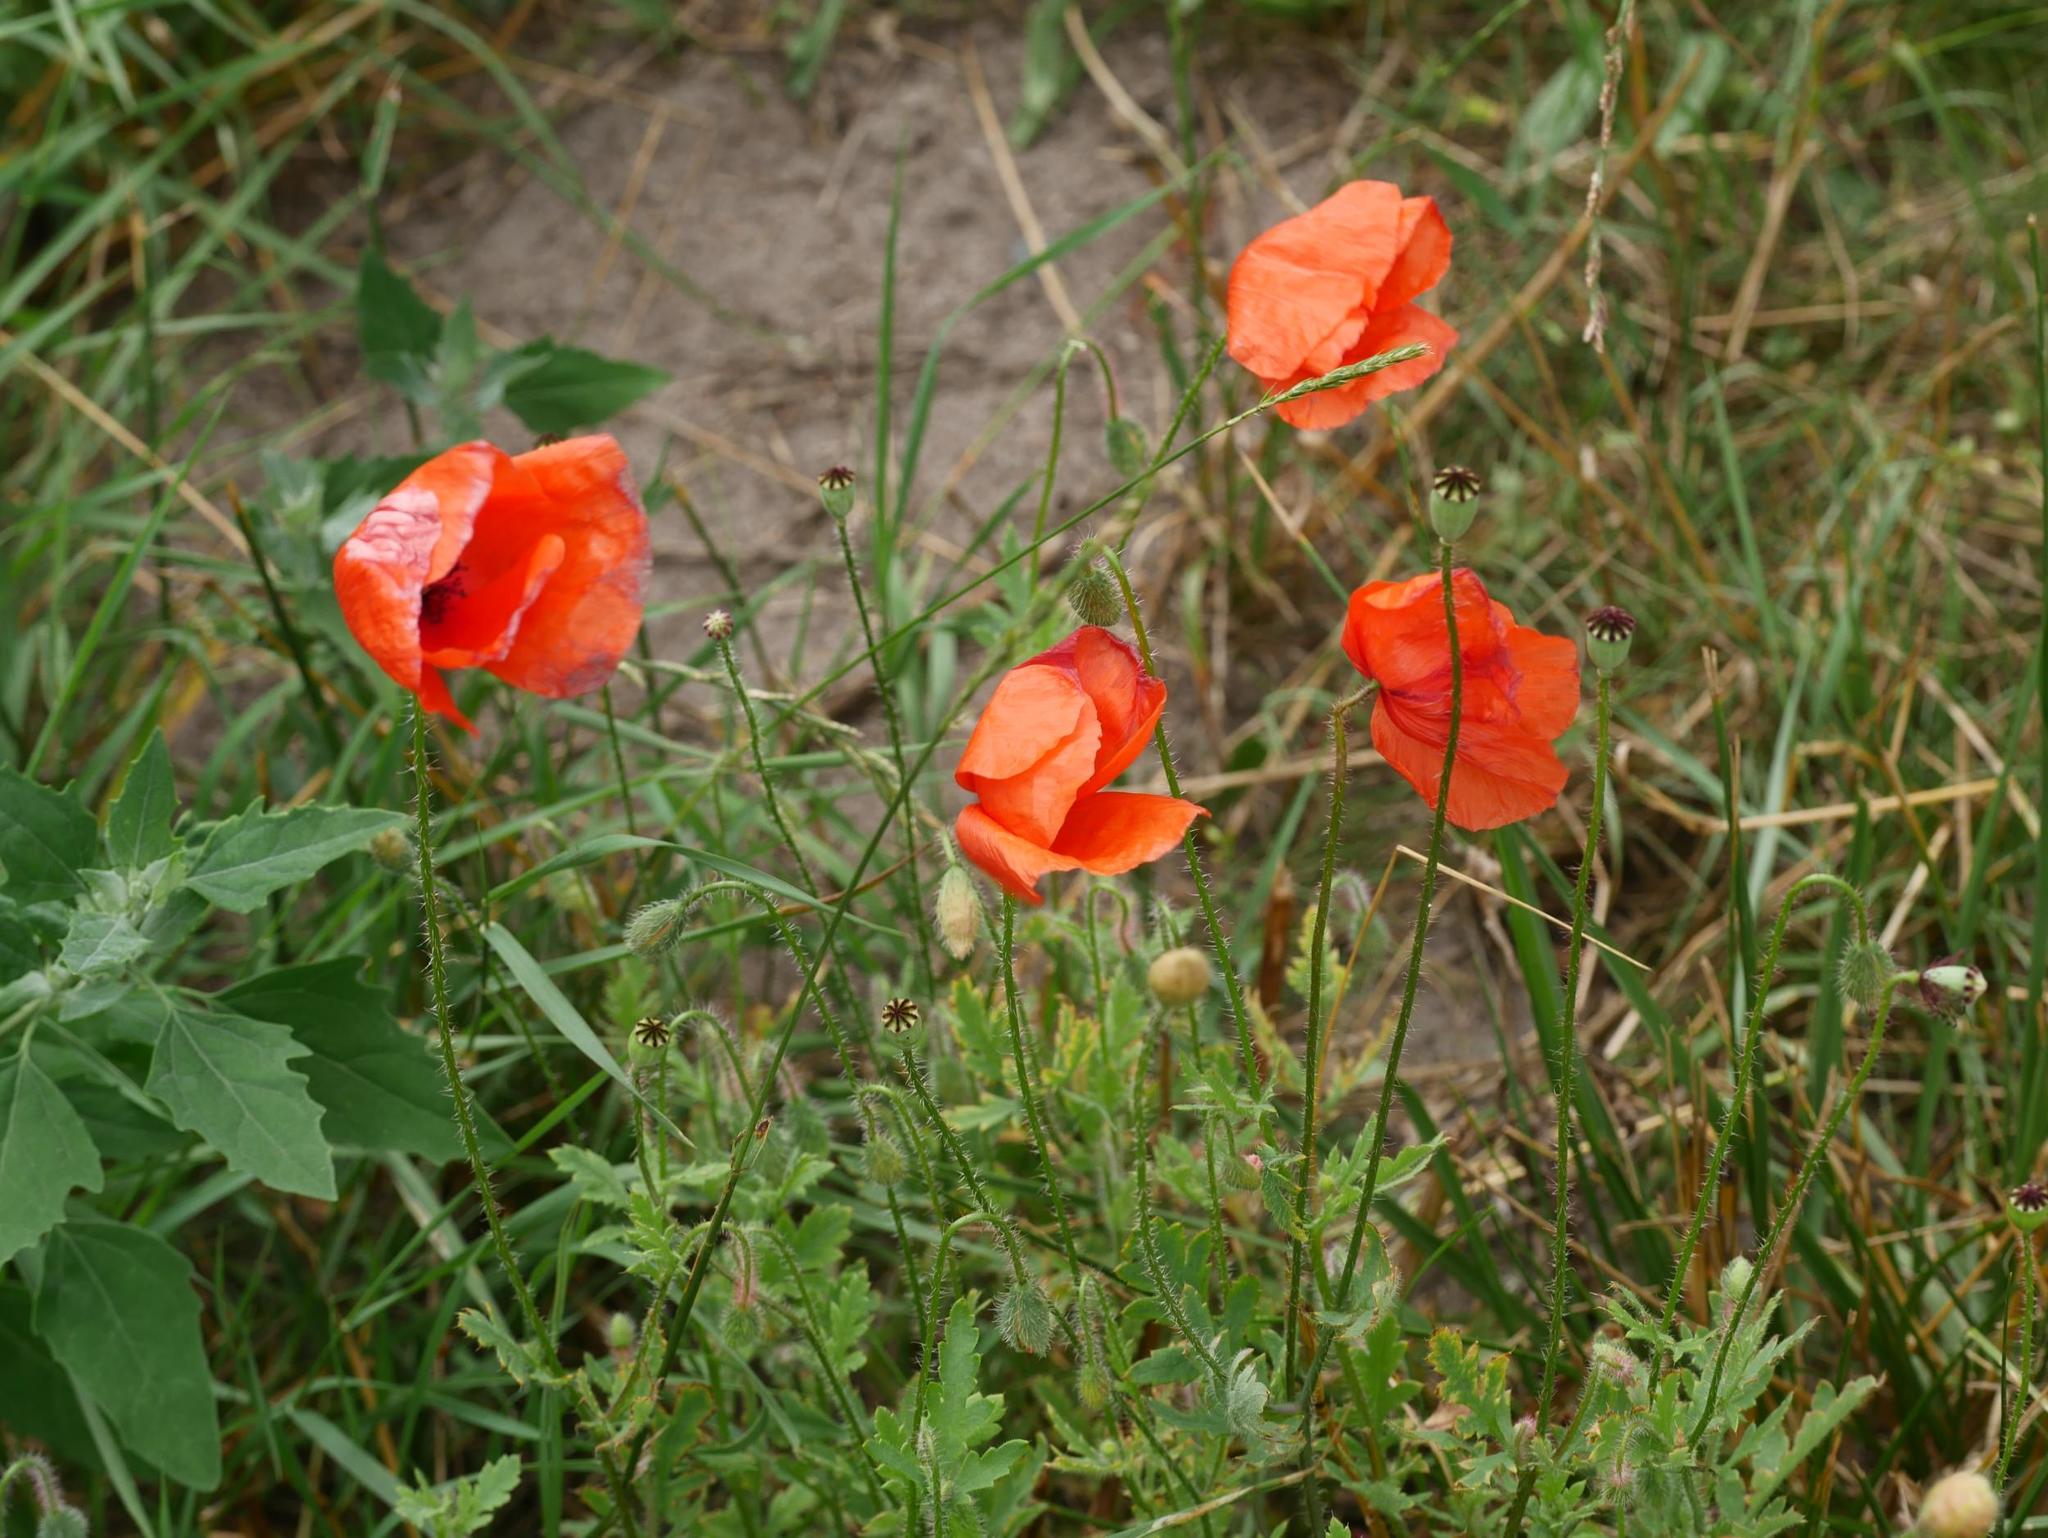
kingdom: Plantae
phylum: Tracheophyta
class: Magnoliopsida
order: Ranunculales
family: Papaveraceae
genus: Papaver
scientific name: Papaver rhoeas
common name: Corn poppy
